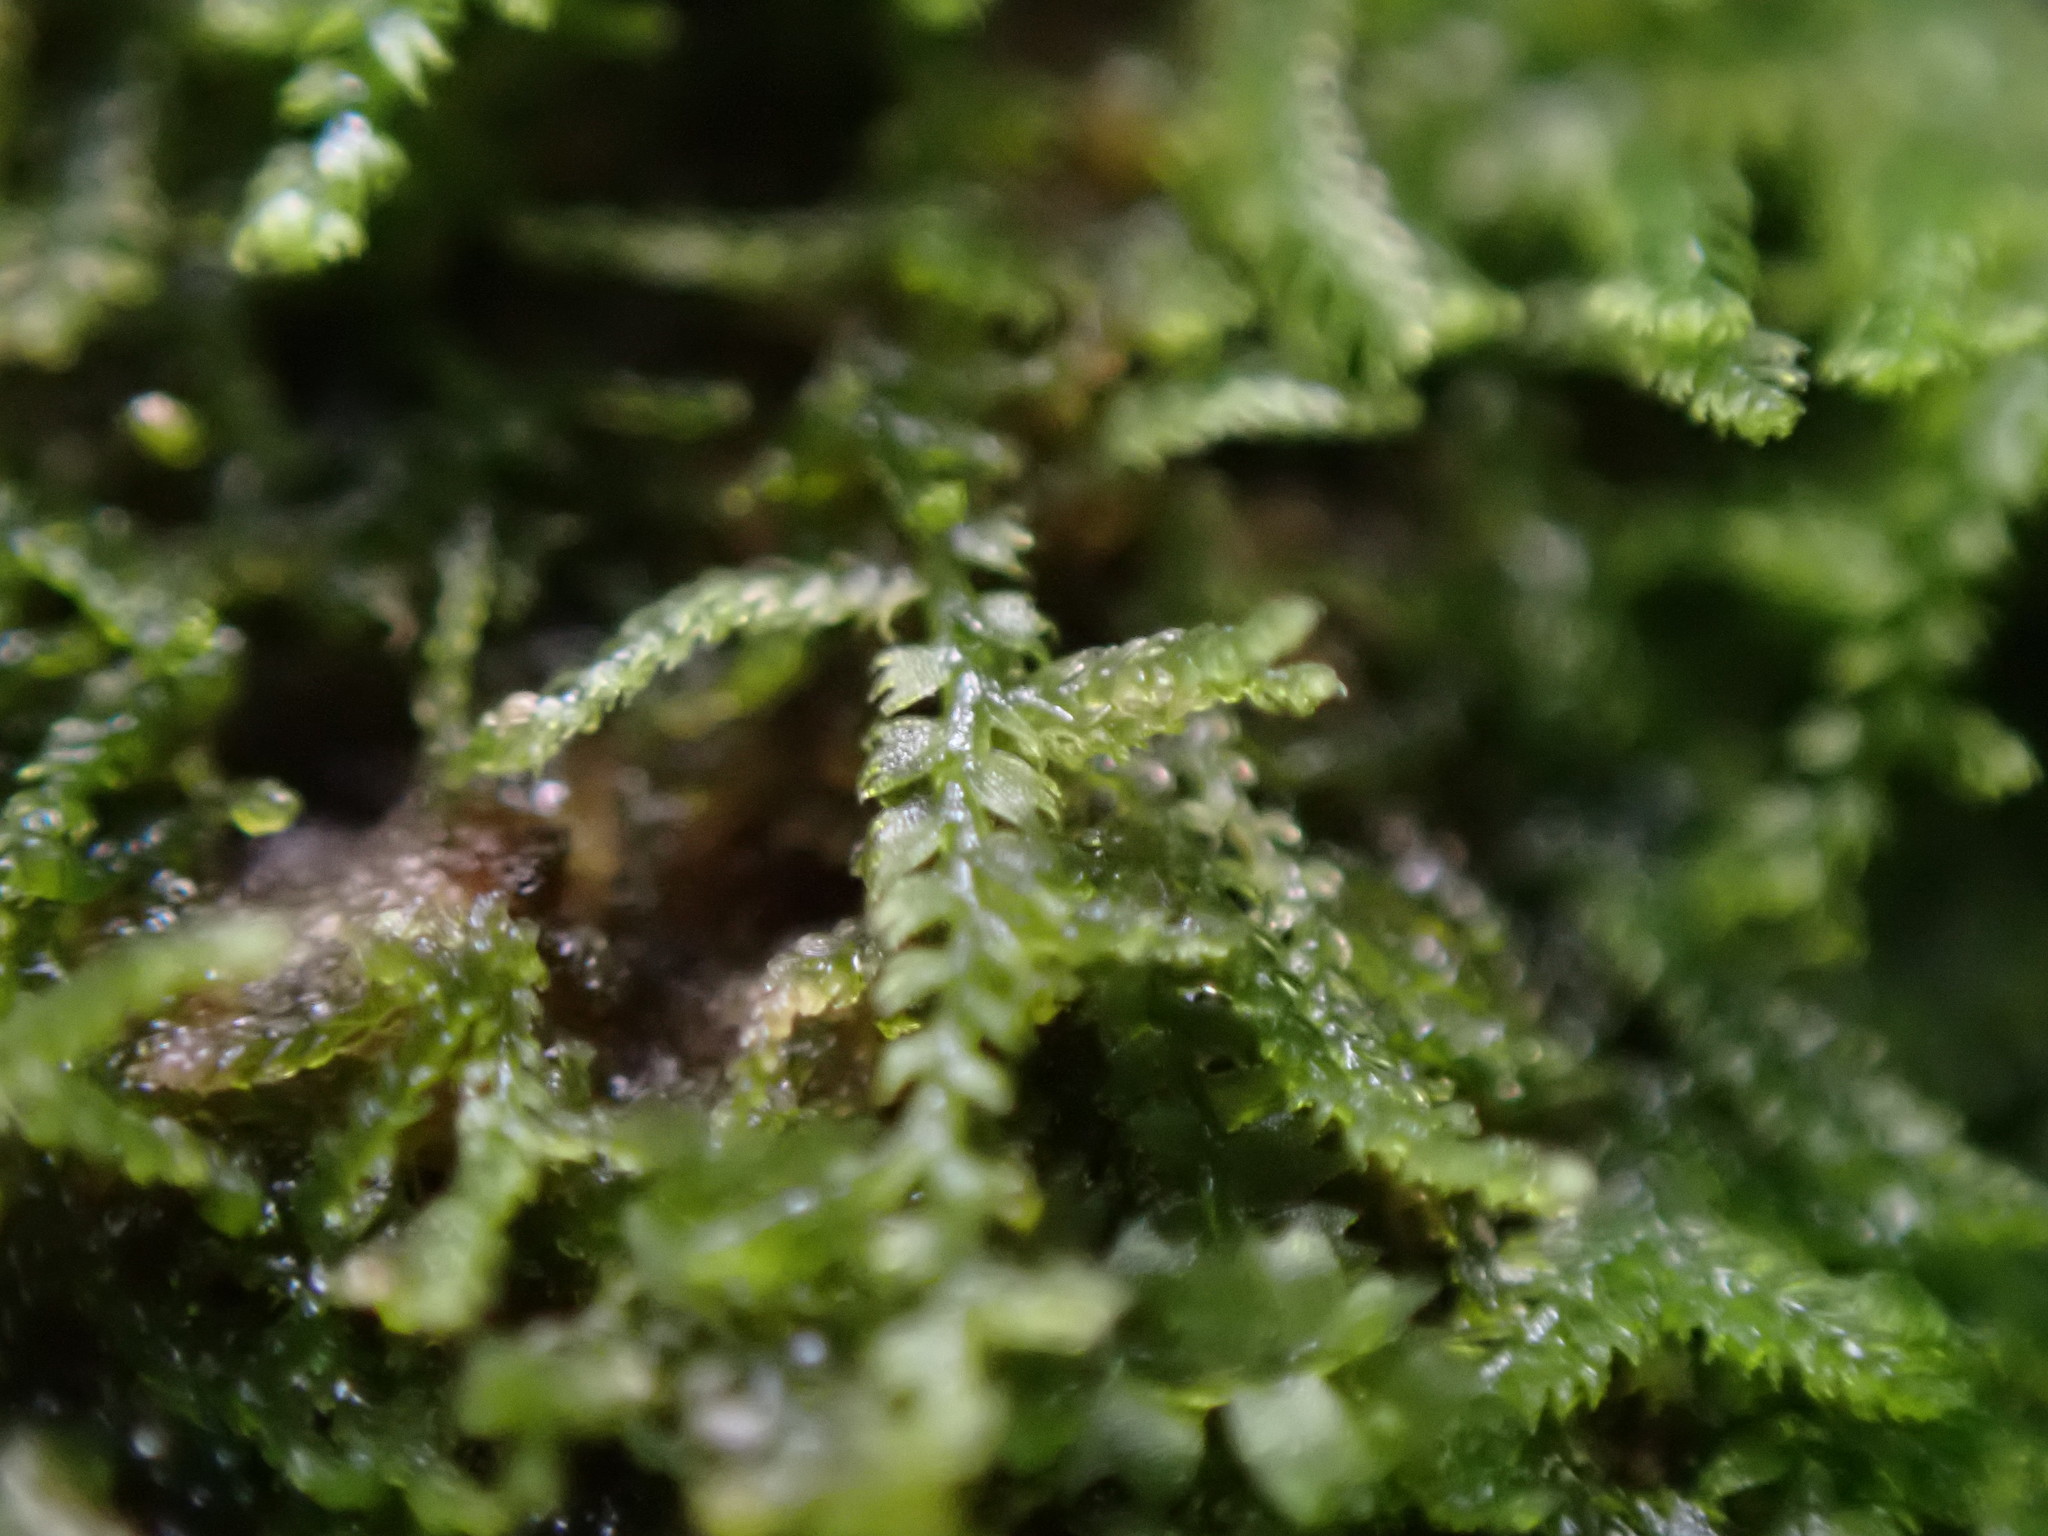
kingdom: Plantae
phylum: Marchantiophyta
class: Jungermanniopsida
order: Jungermanniales
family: Lepidoziaceae
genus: Lepidozia
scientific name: Lepidozia reptans
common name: Creeping fingerwort
